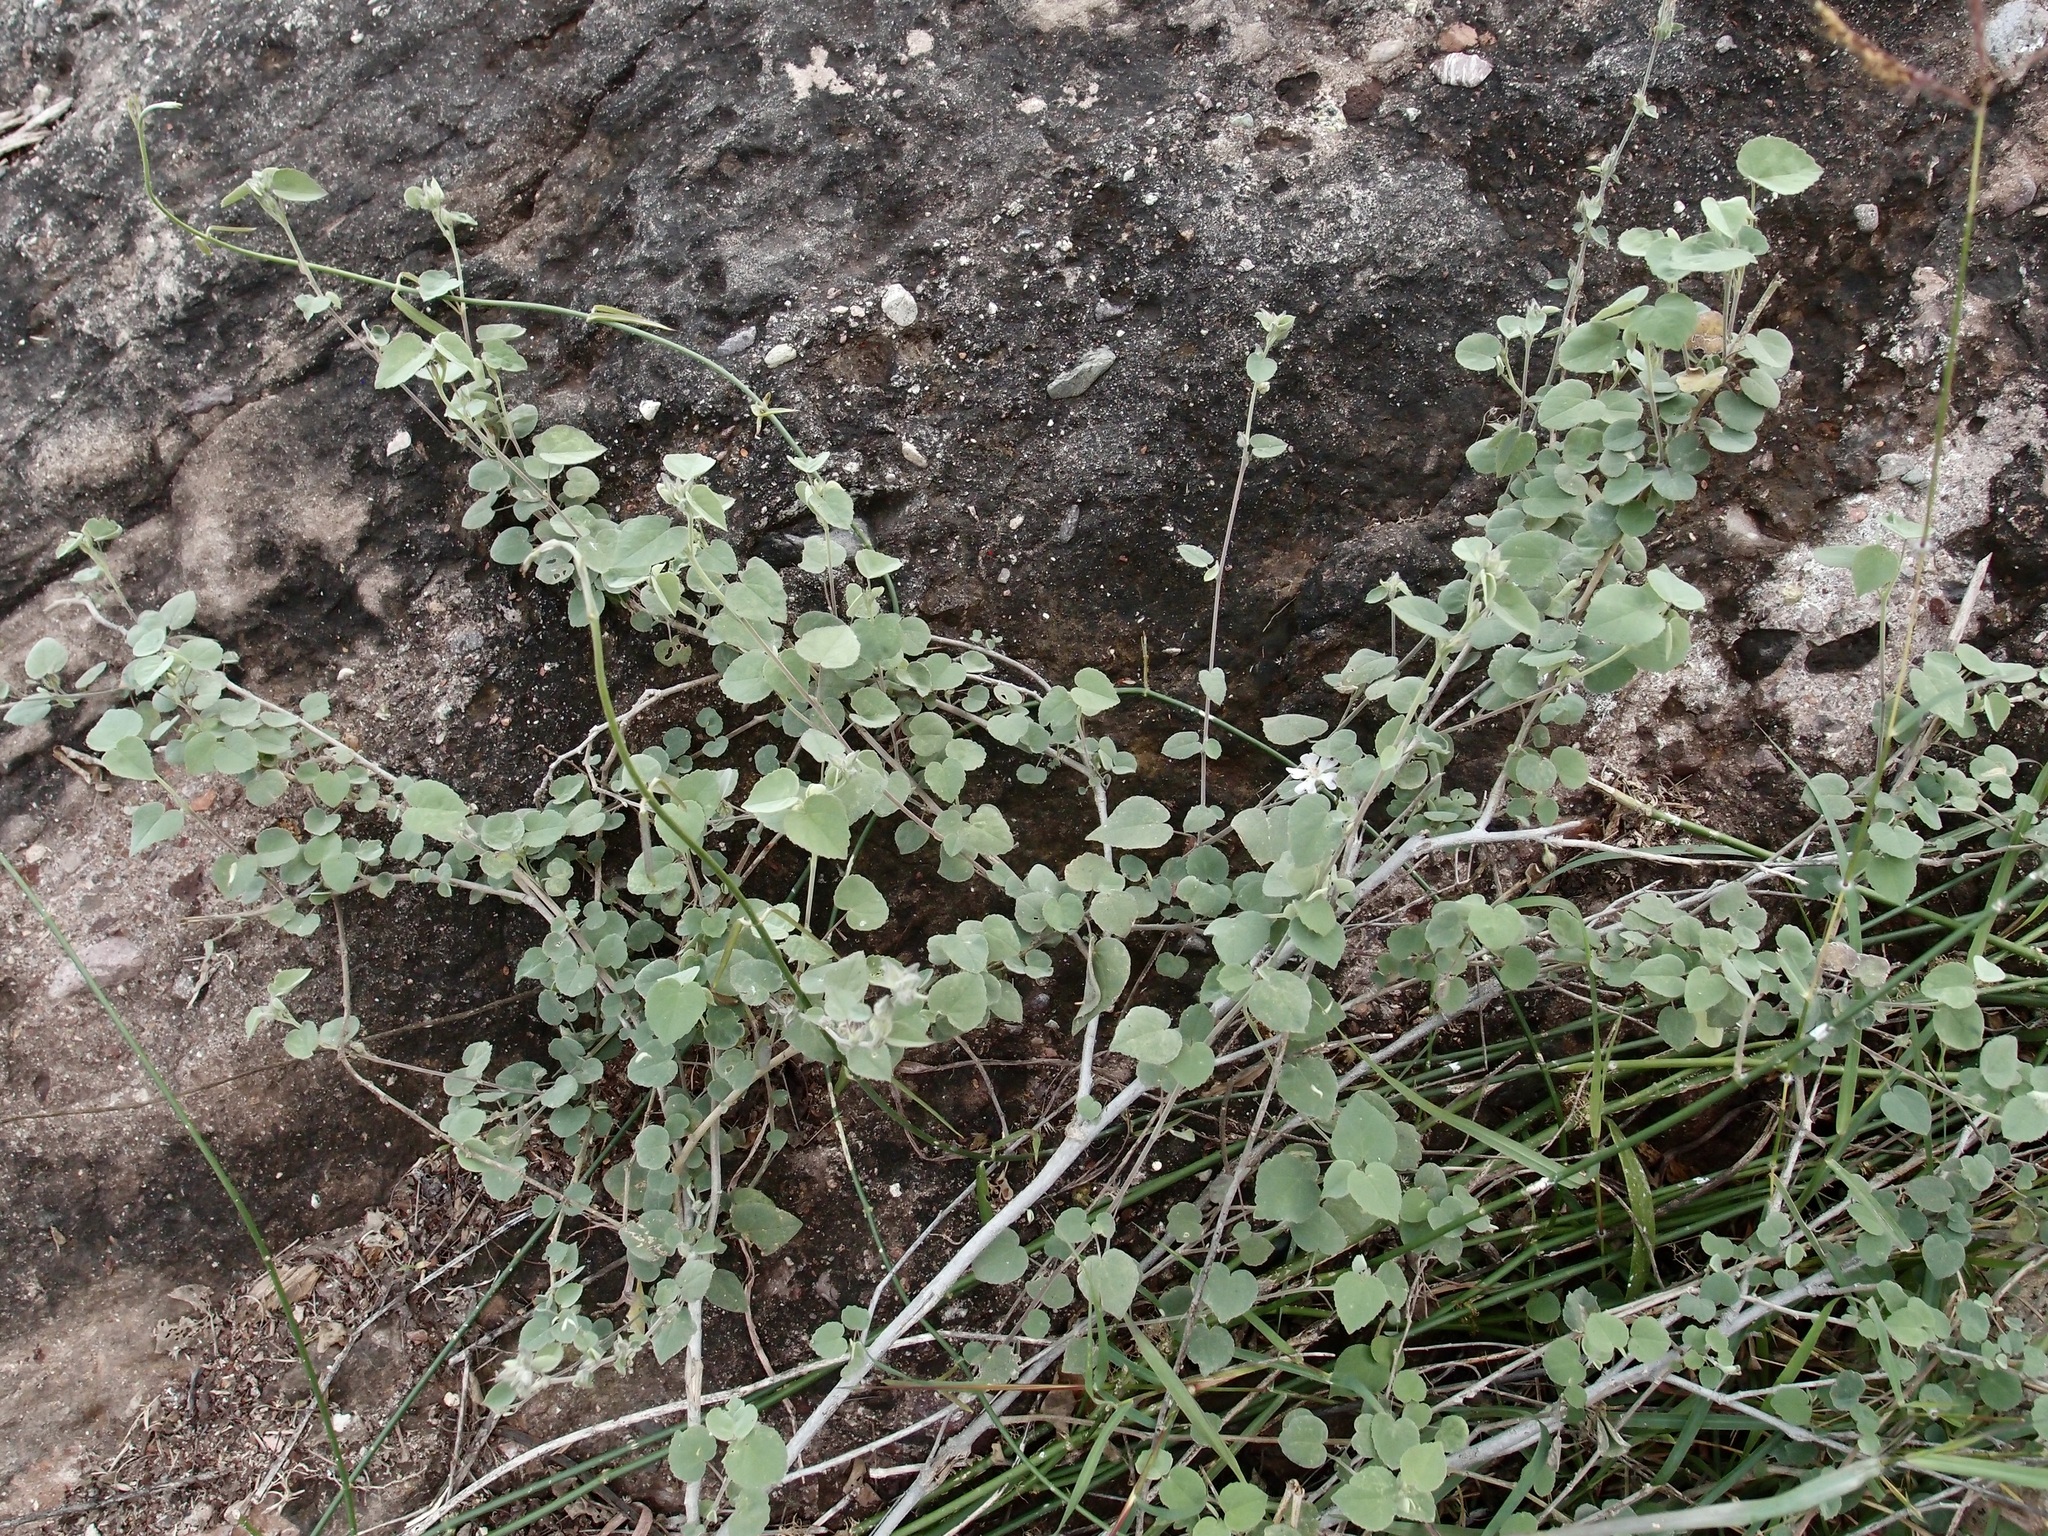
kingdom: Plantae
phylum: Tracheophyta
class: Magnoliopsida
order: Malvales
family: Malvaceae
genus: Bastardiastrum
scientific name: Bastardiastrum cinctum
